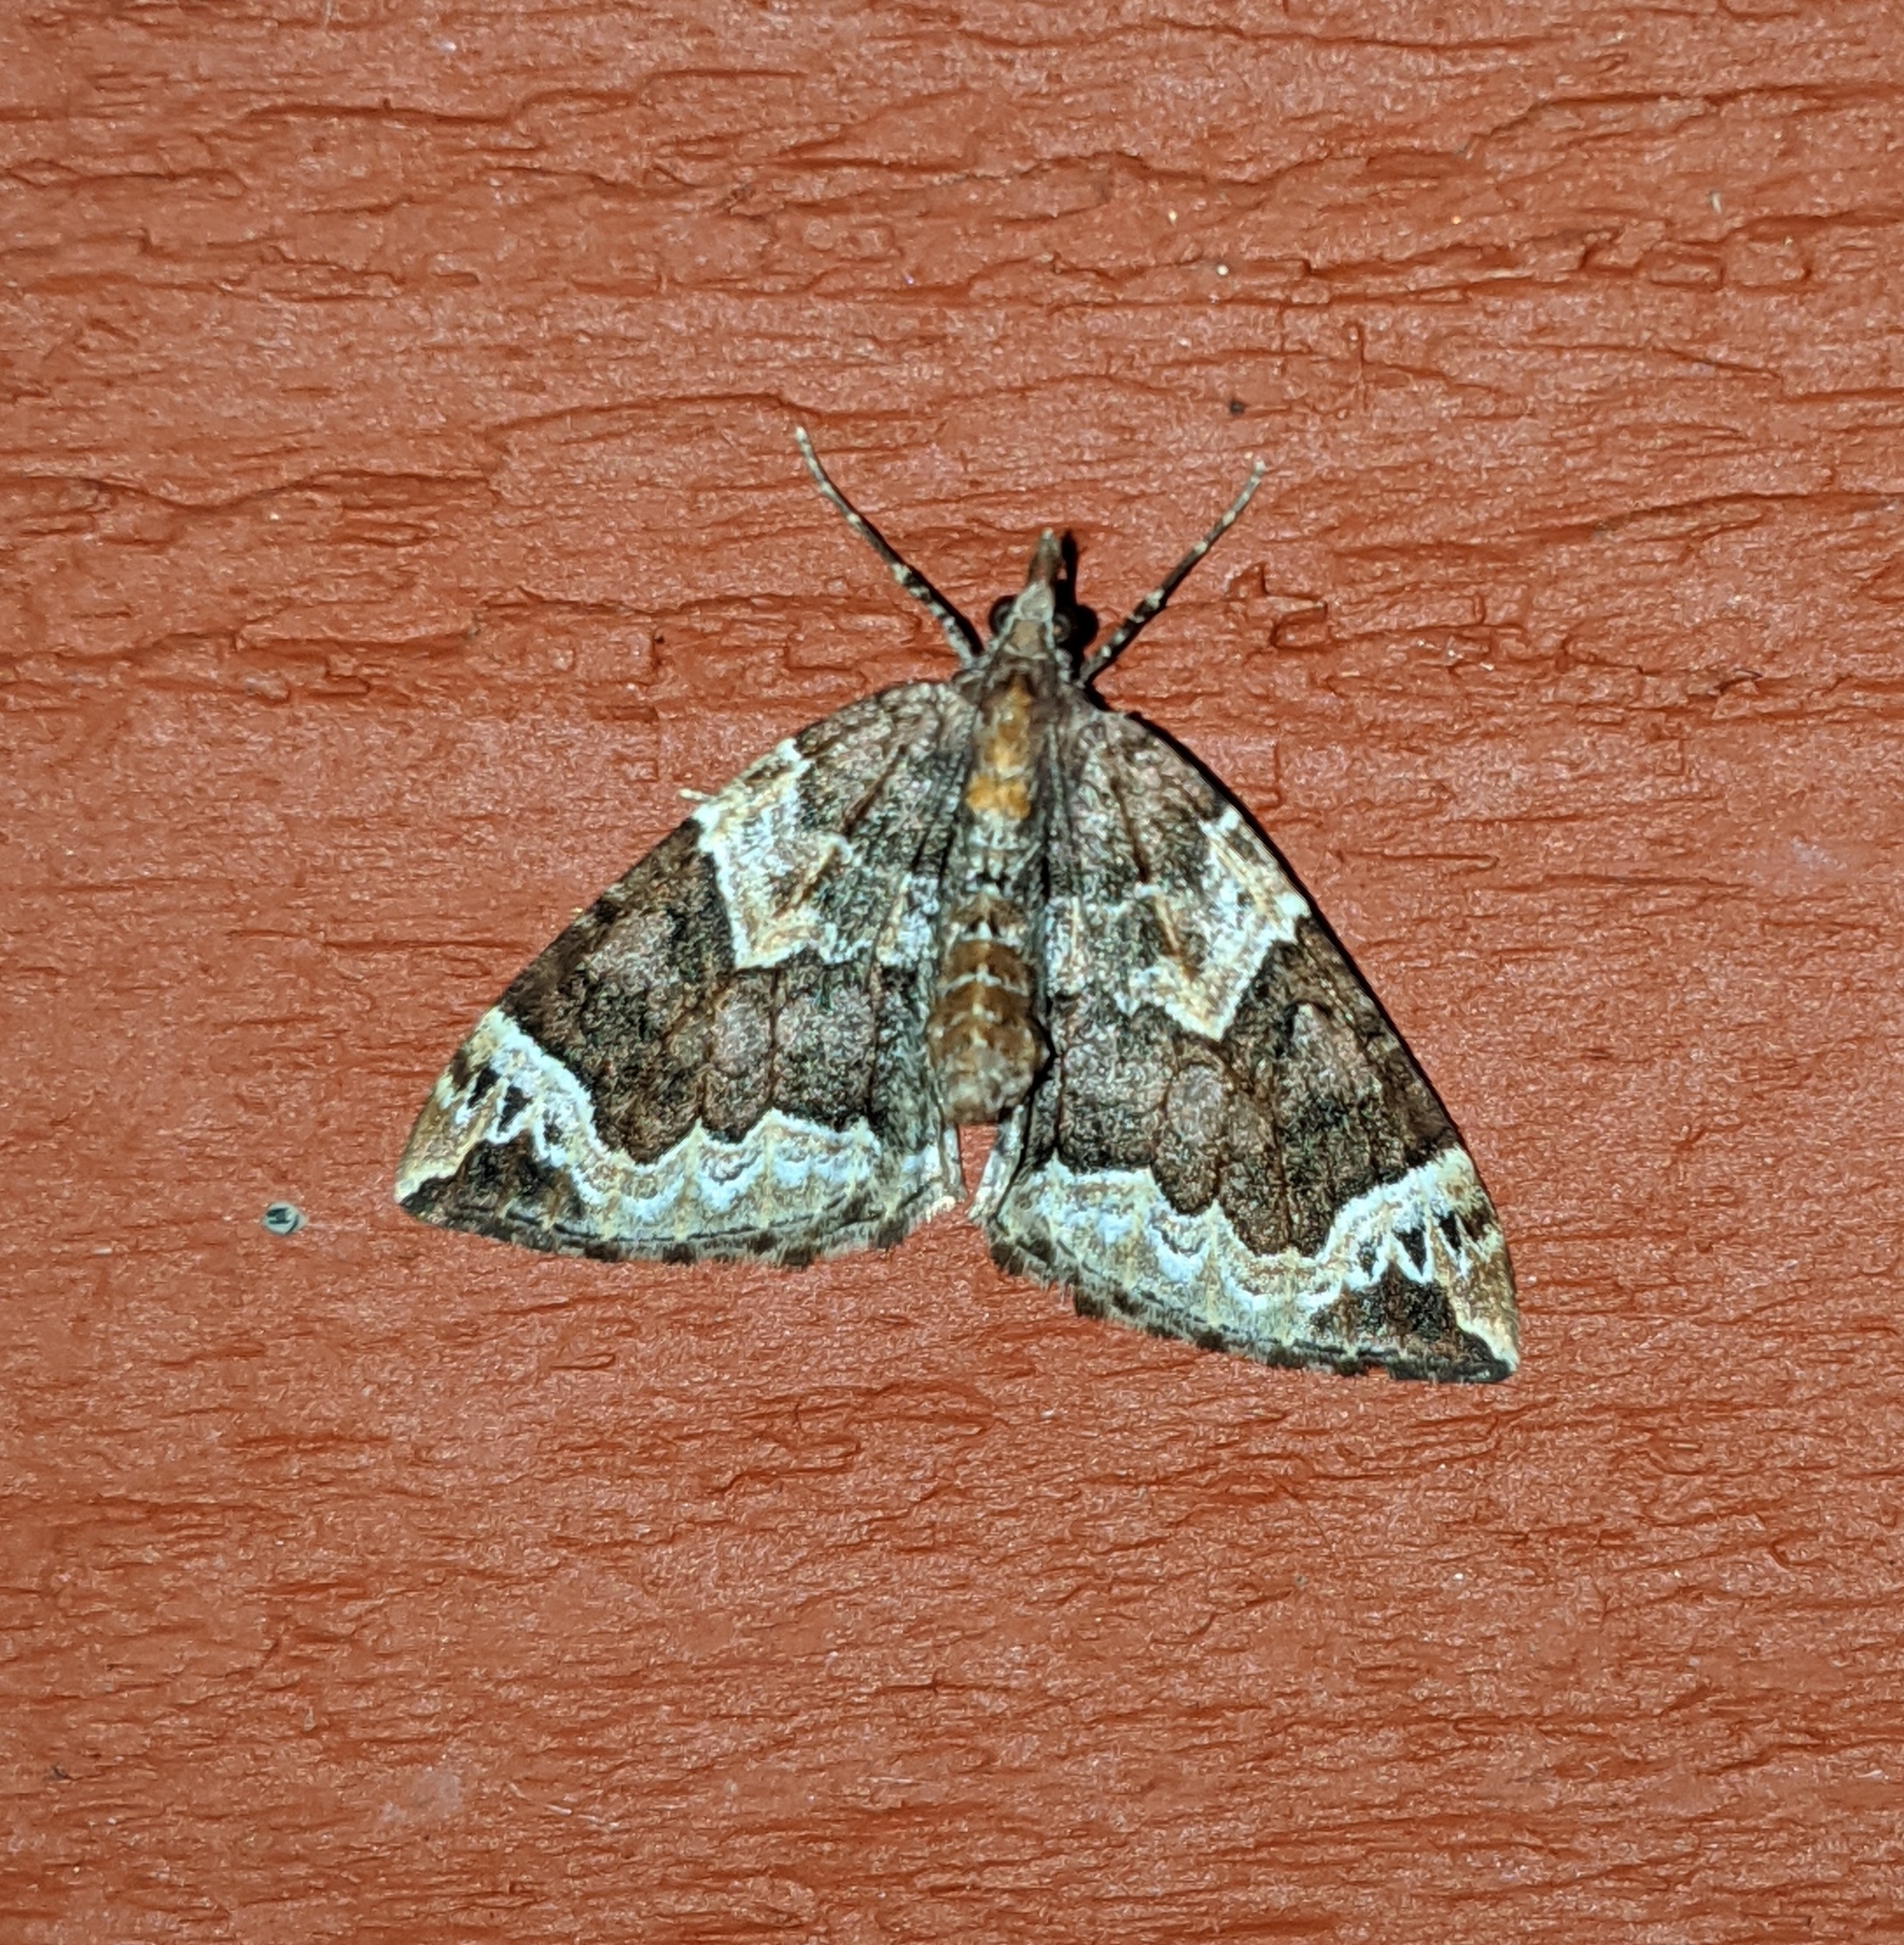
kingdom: Animalia
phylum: Arthropoda
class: Insecta
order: Lepidoptera
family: Geometridae
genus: Eulithis
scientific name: Eulithis xylina
